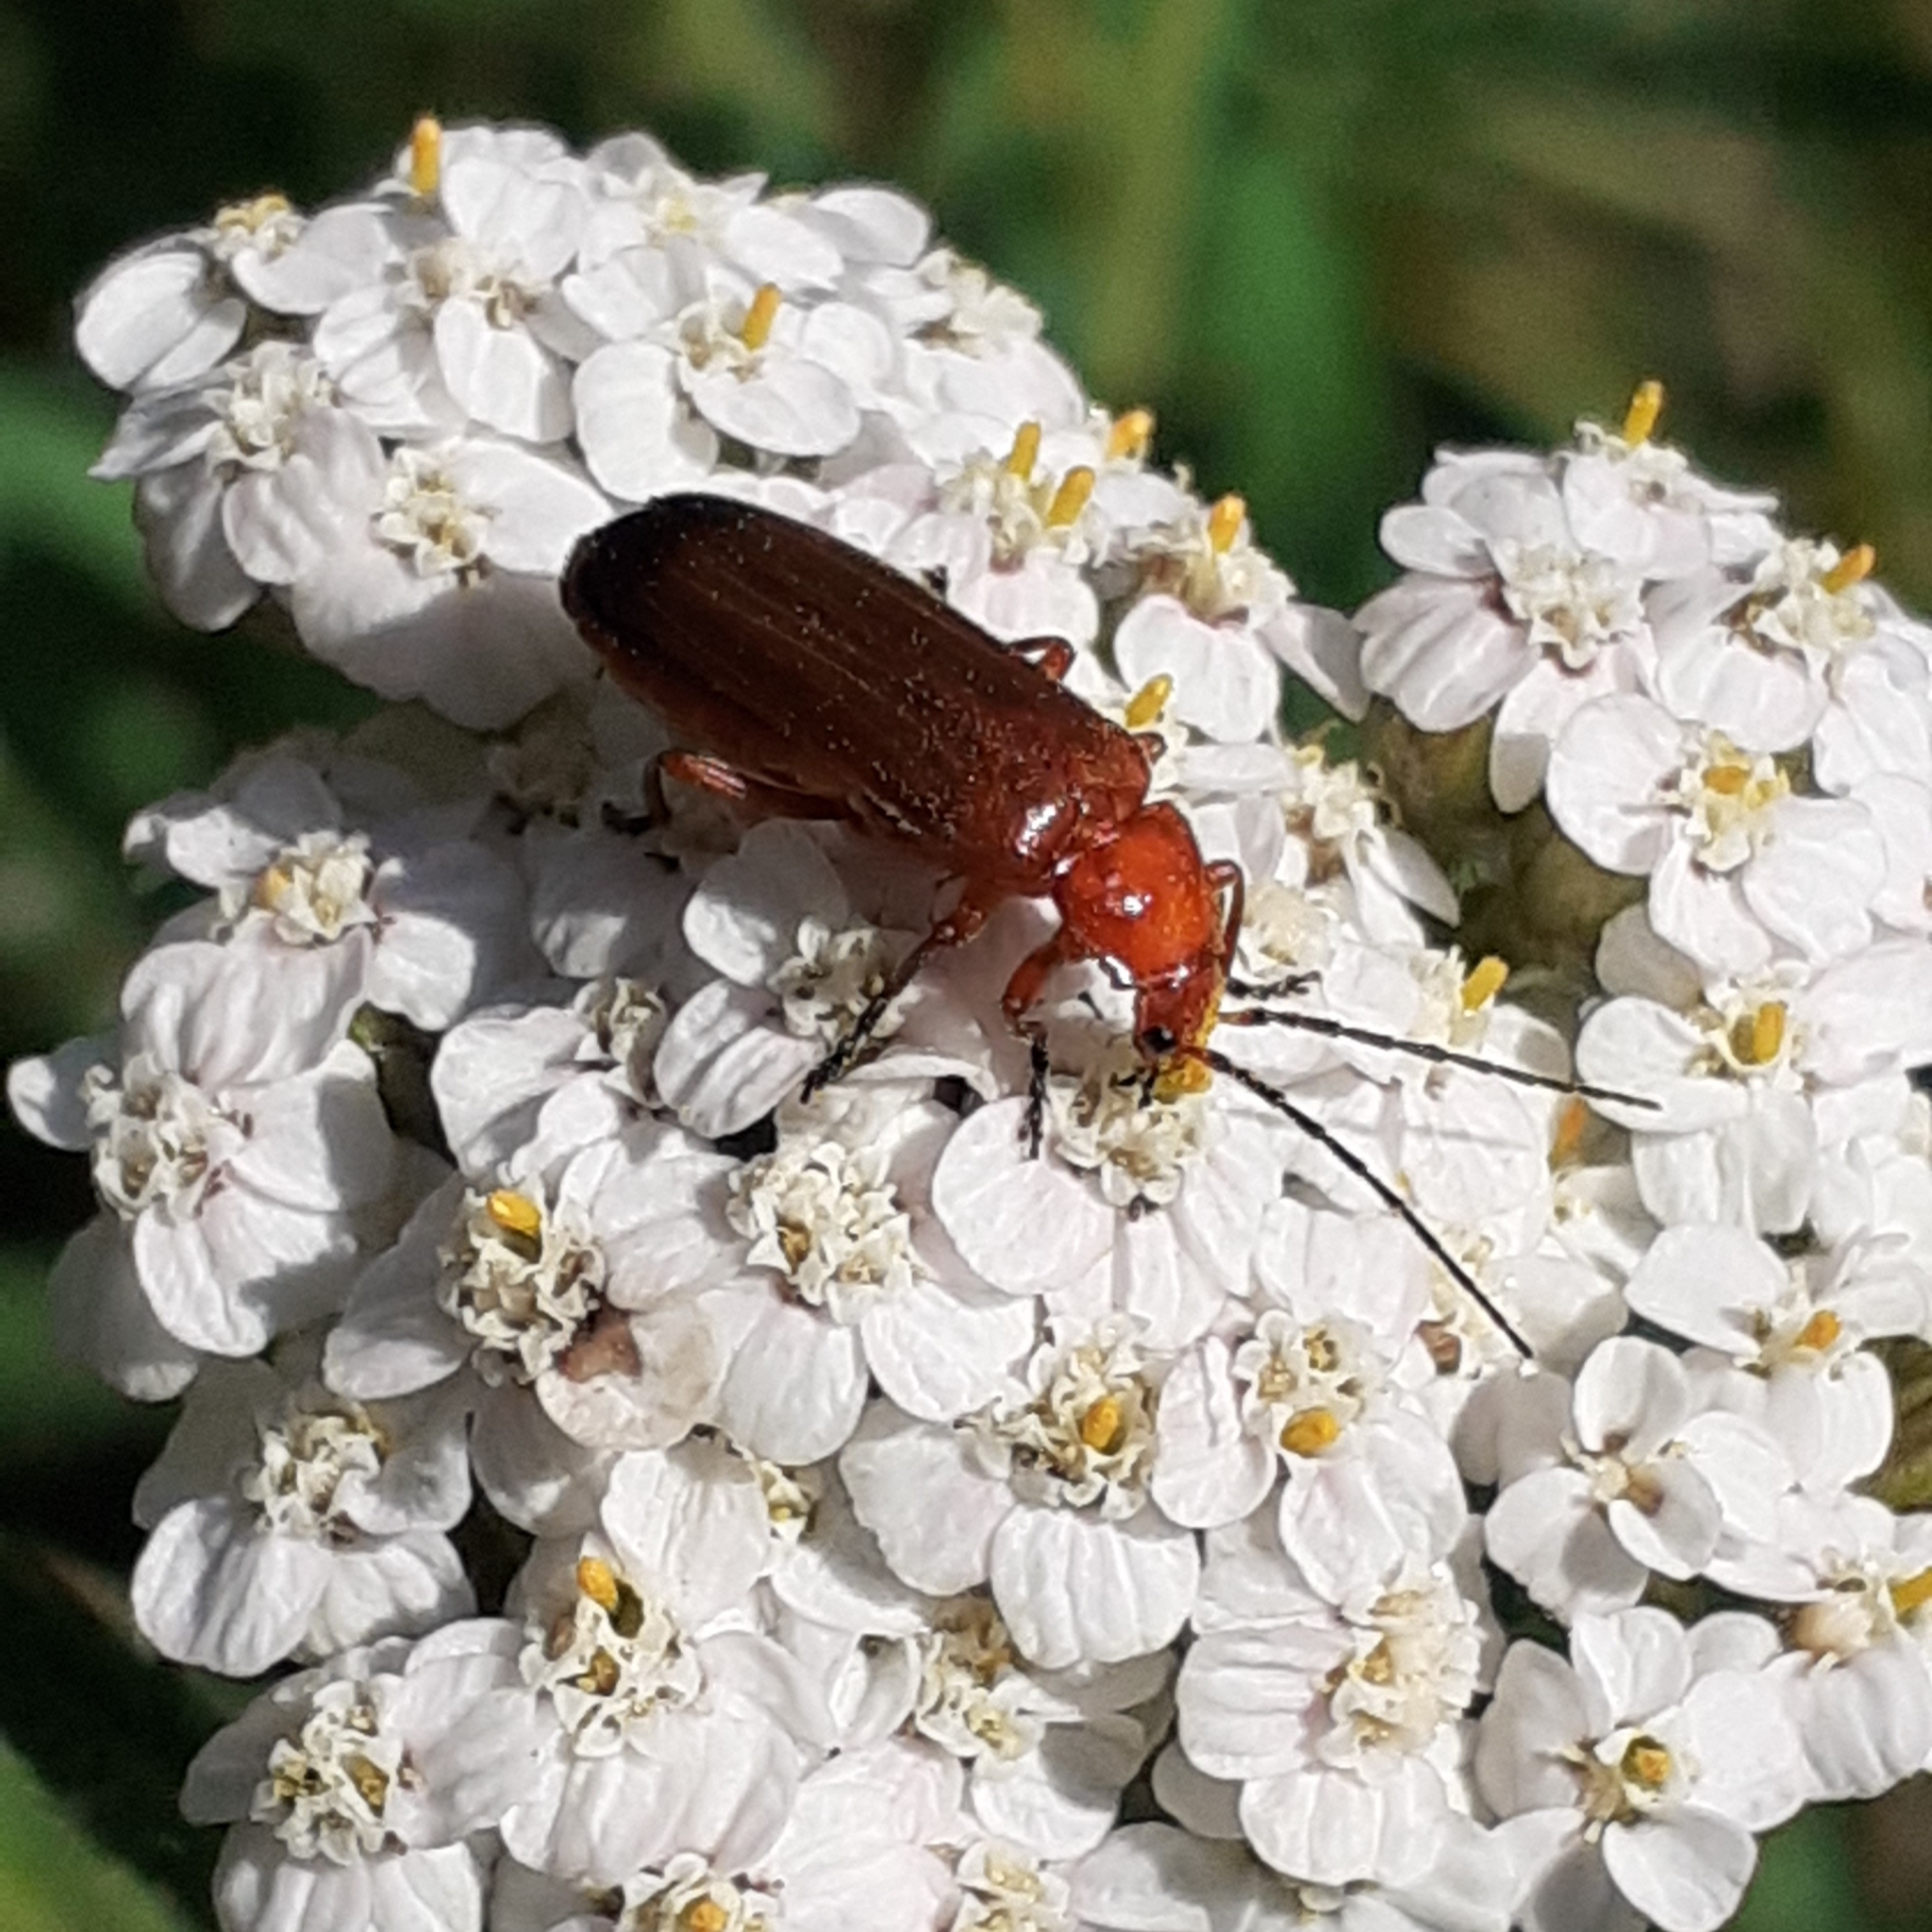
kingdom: Animalia
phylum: Arthropoda
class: Insecta
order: Coleoptera
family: Cantharidae
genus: Rhagonycha
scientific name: Rhagonycha fulva
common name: Common red soldier beetle
